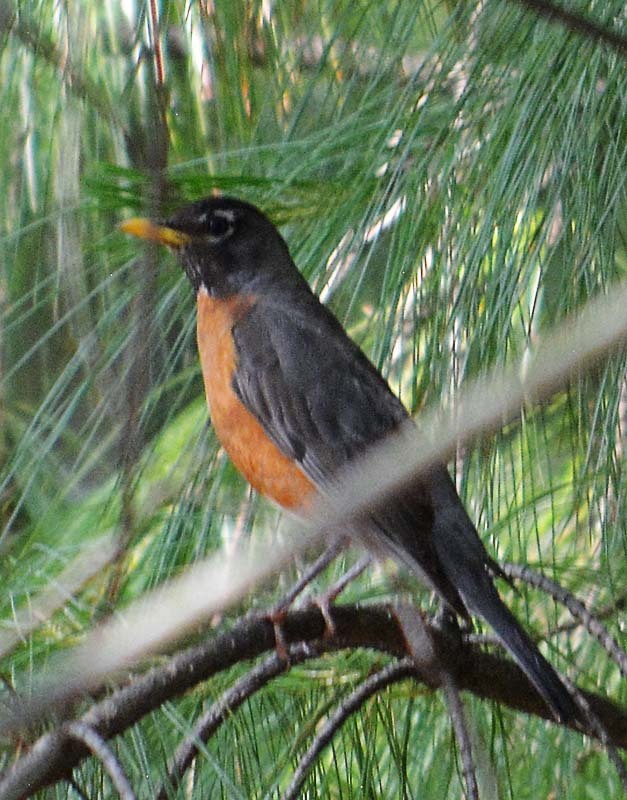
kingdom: Animalia
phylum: Chordata
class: Aves
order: Passeriformes
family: Turdidae
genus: Turdus
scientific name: Turdus migratorius
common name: American robin
